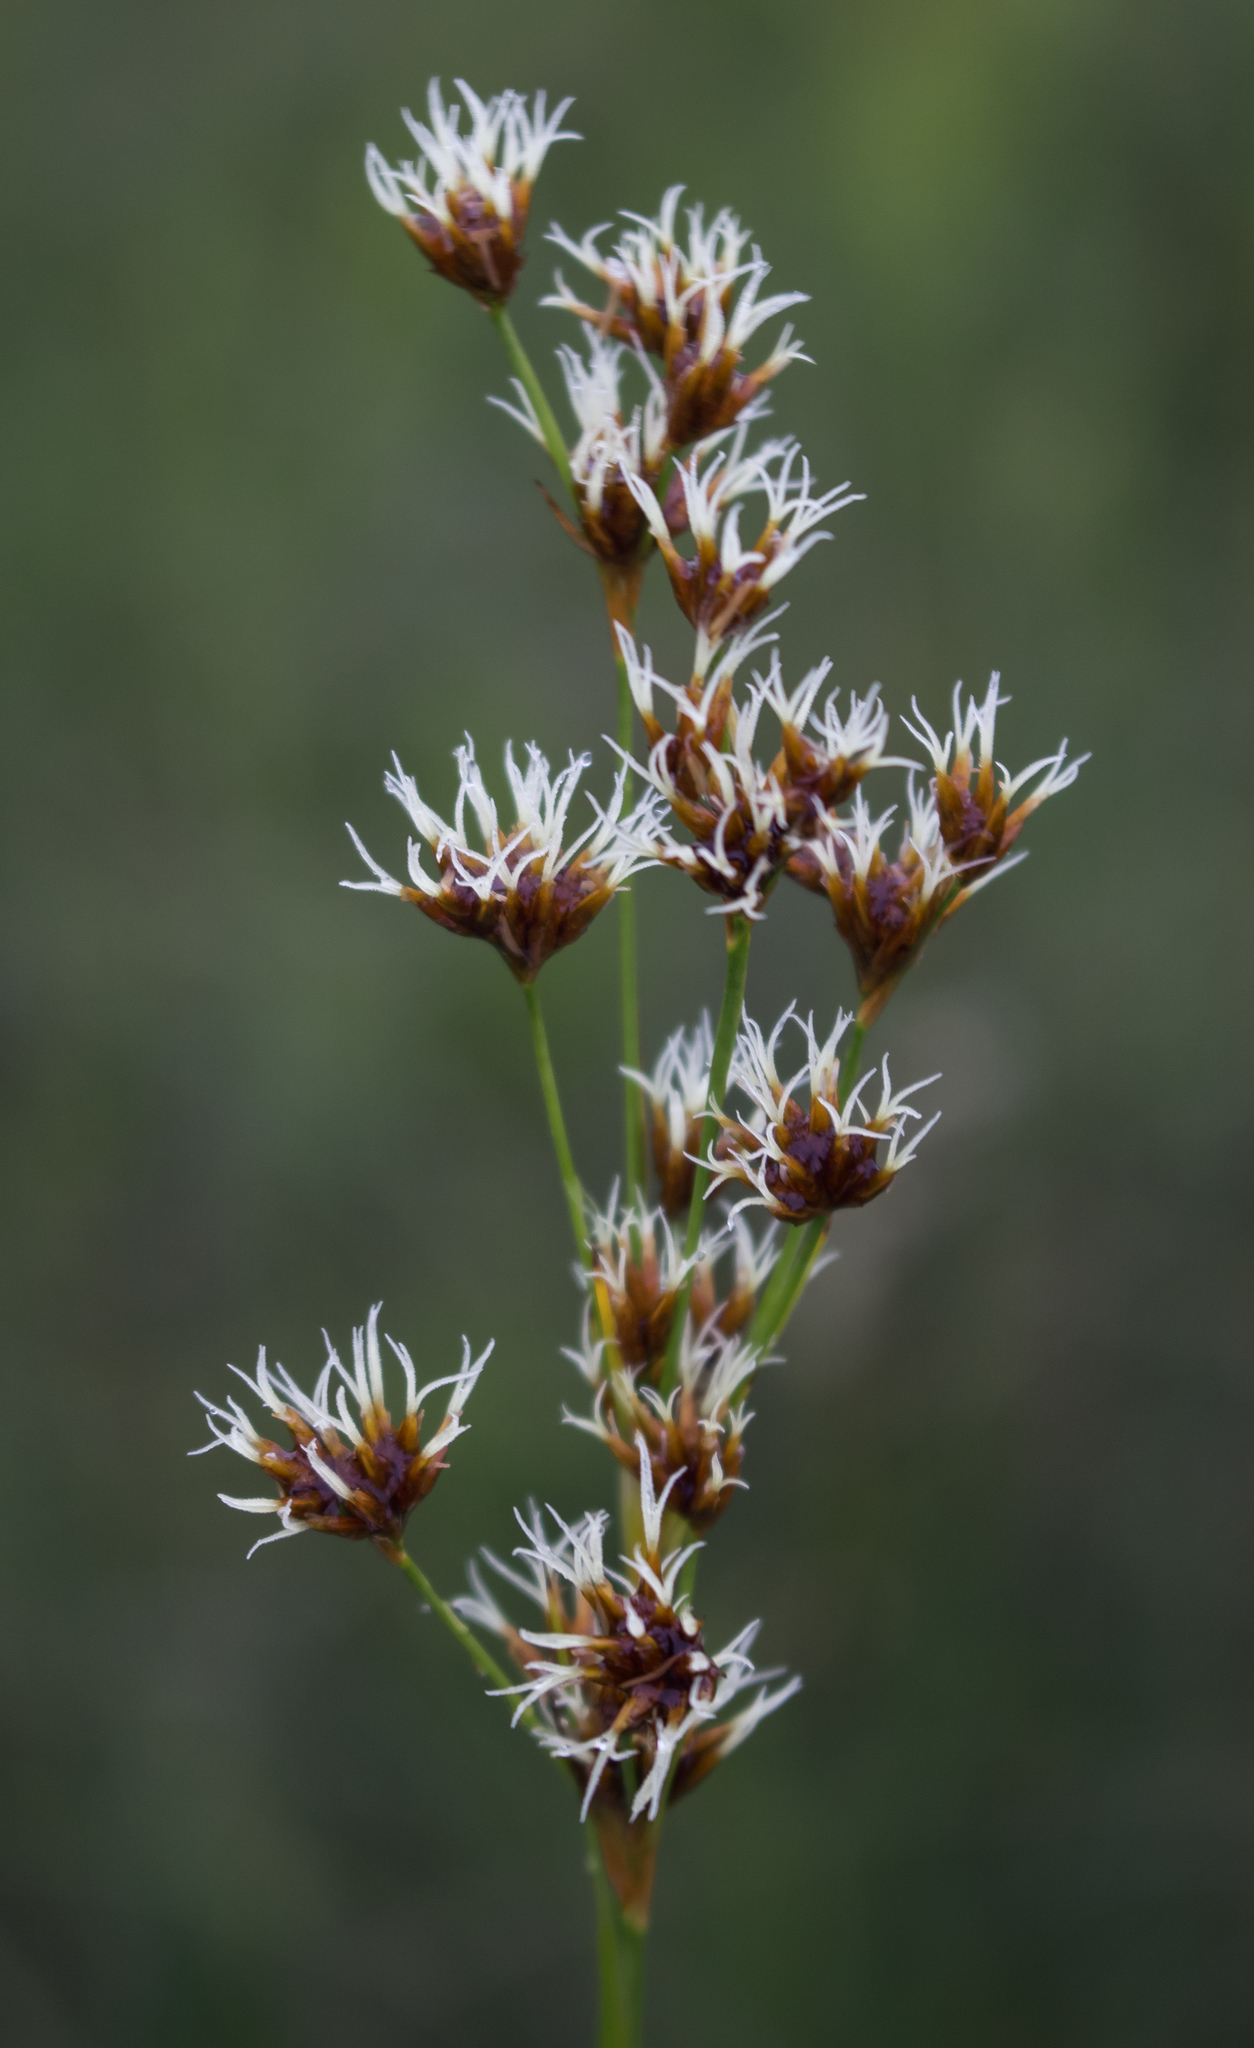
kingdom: Plantae
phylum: Tracheophyta
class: Liliopsida
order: Poales
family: Cyperaceae
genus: Cladium
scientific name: Cladium mariscoides
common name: Smooth sawgrass
